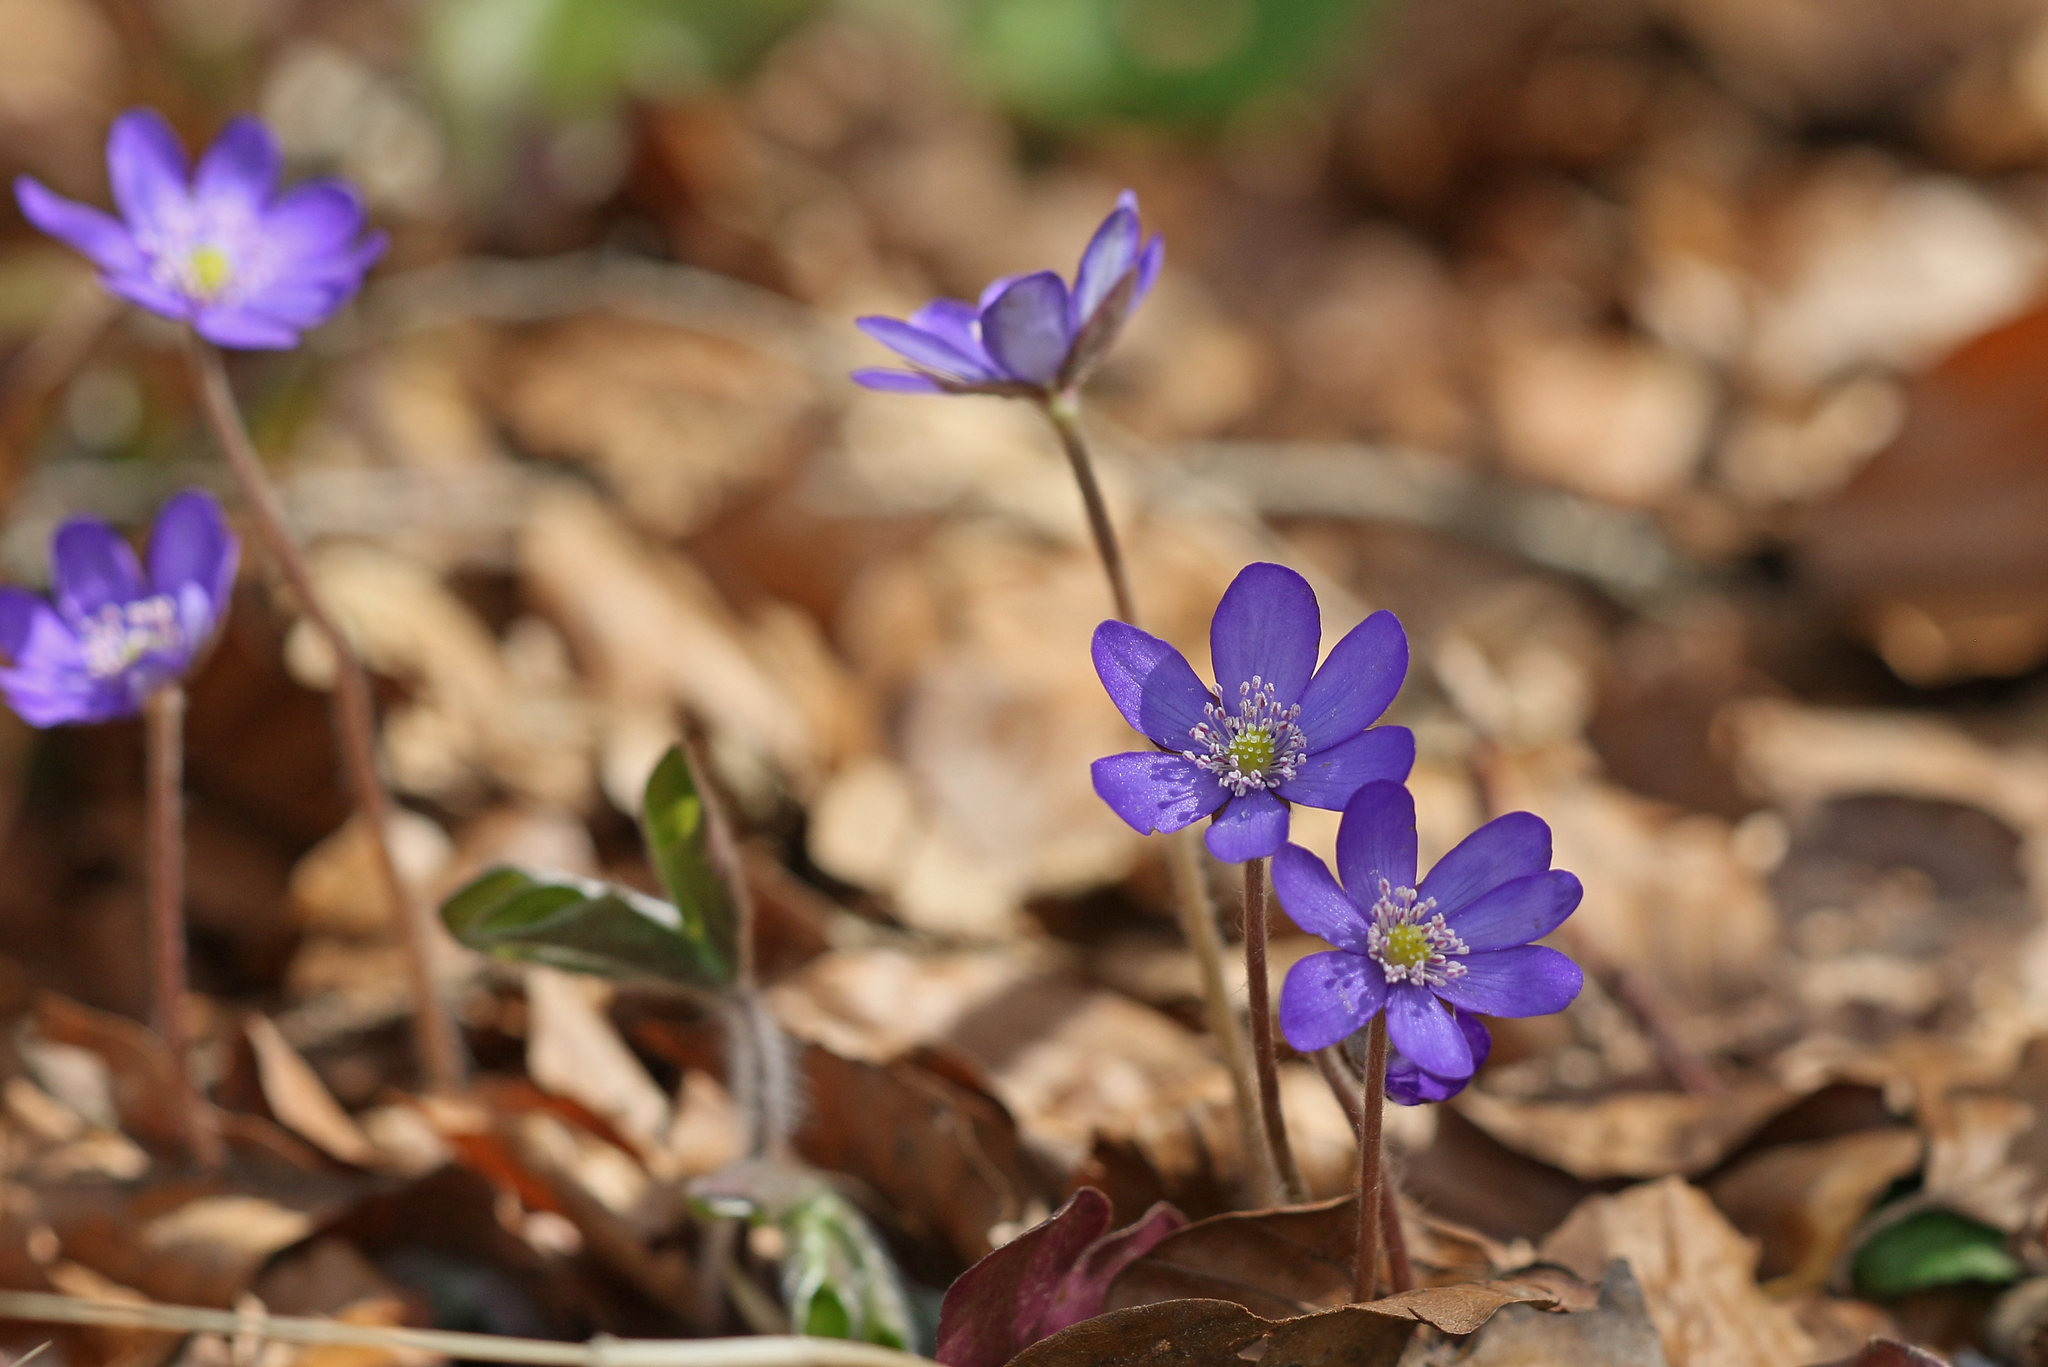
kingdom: Plantae
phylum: Tracheophyta
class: Magnoliopsida
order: Ranunculales
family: Ranunculaceae
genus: Hepatica
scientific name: Hepatica nobilis
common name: Liverleaf
